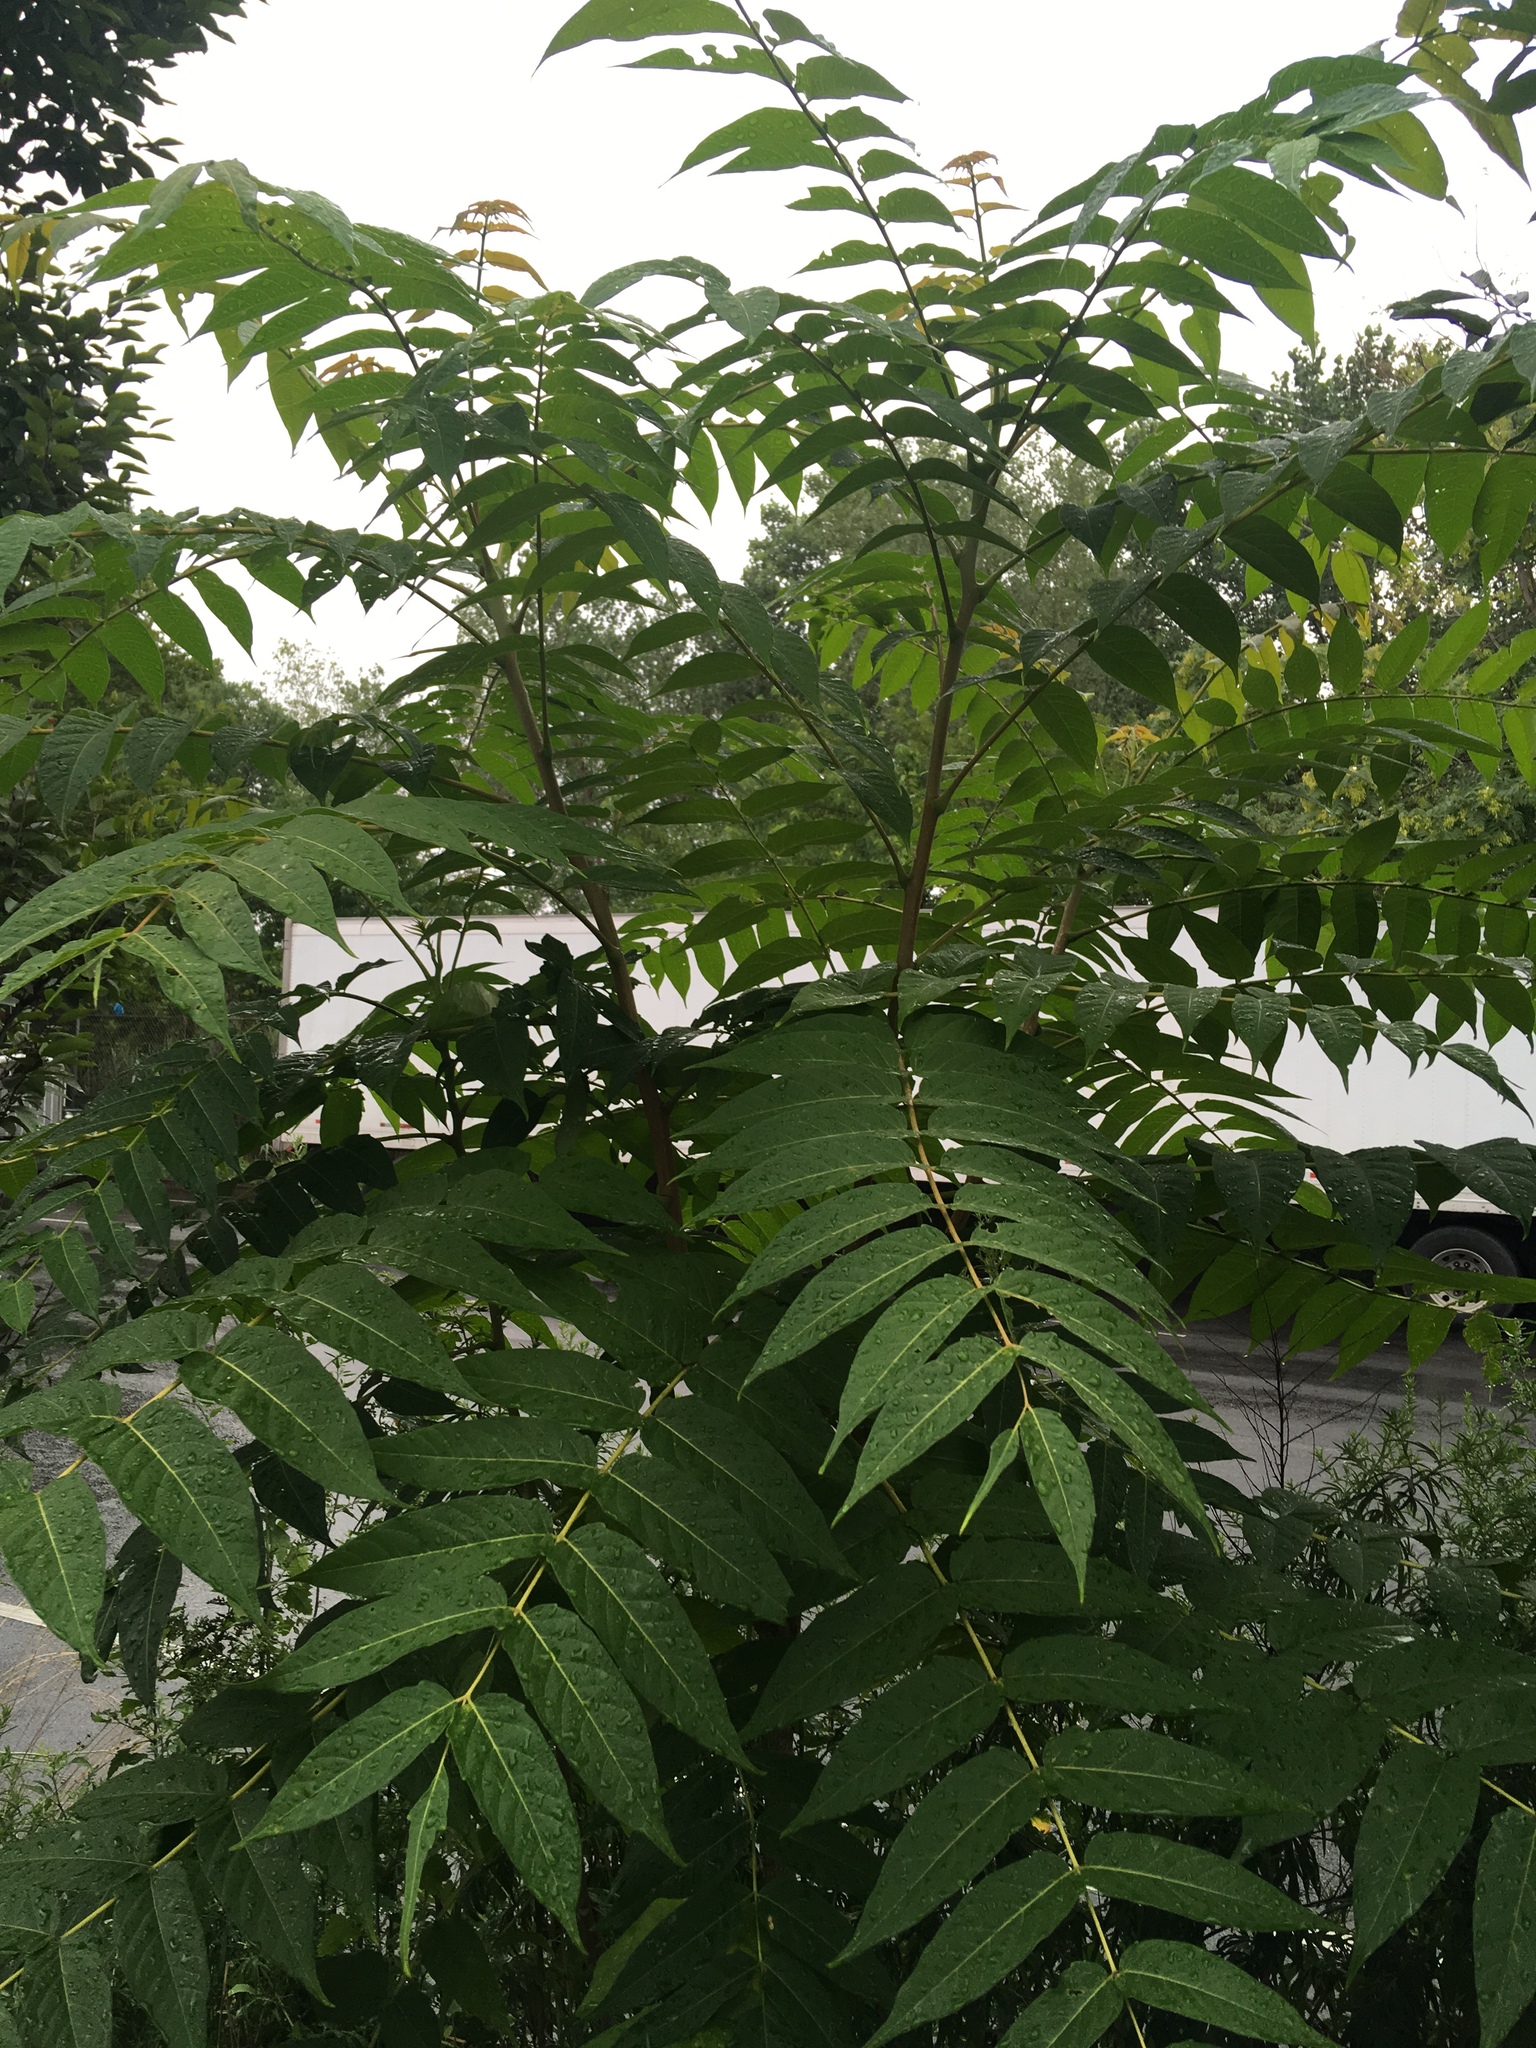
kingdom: Plantae
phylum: Tracheophyta
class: Magnoliopsida
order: Sapindales
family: Simaroubaceae
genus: Ailanthus
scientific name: Ailanthus altissima
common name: Tree-of-heaven
